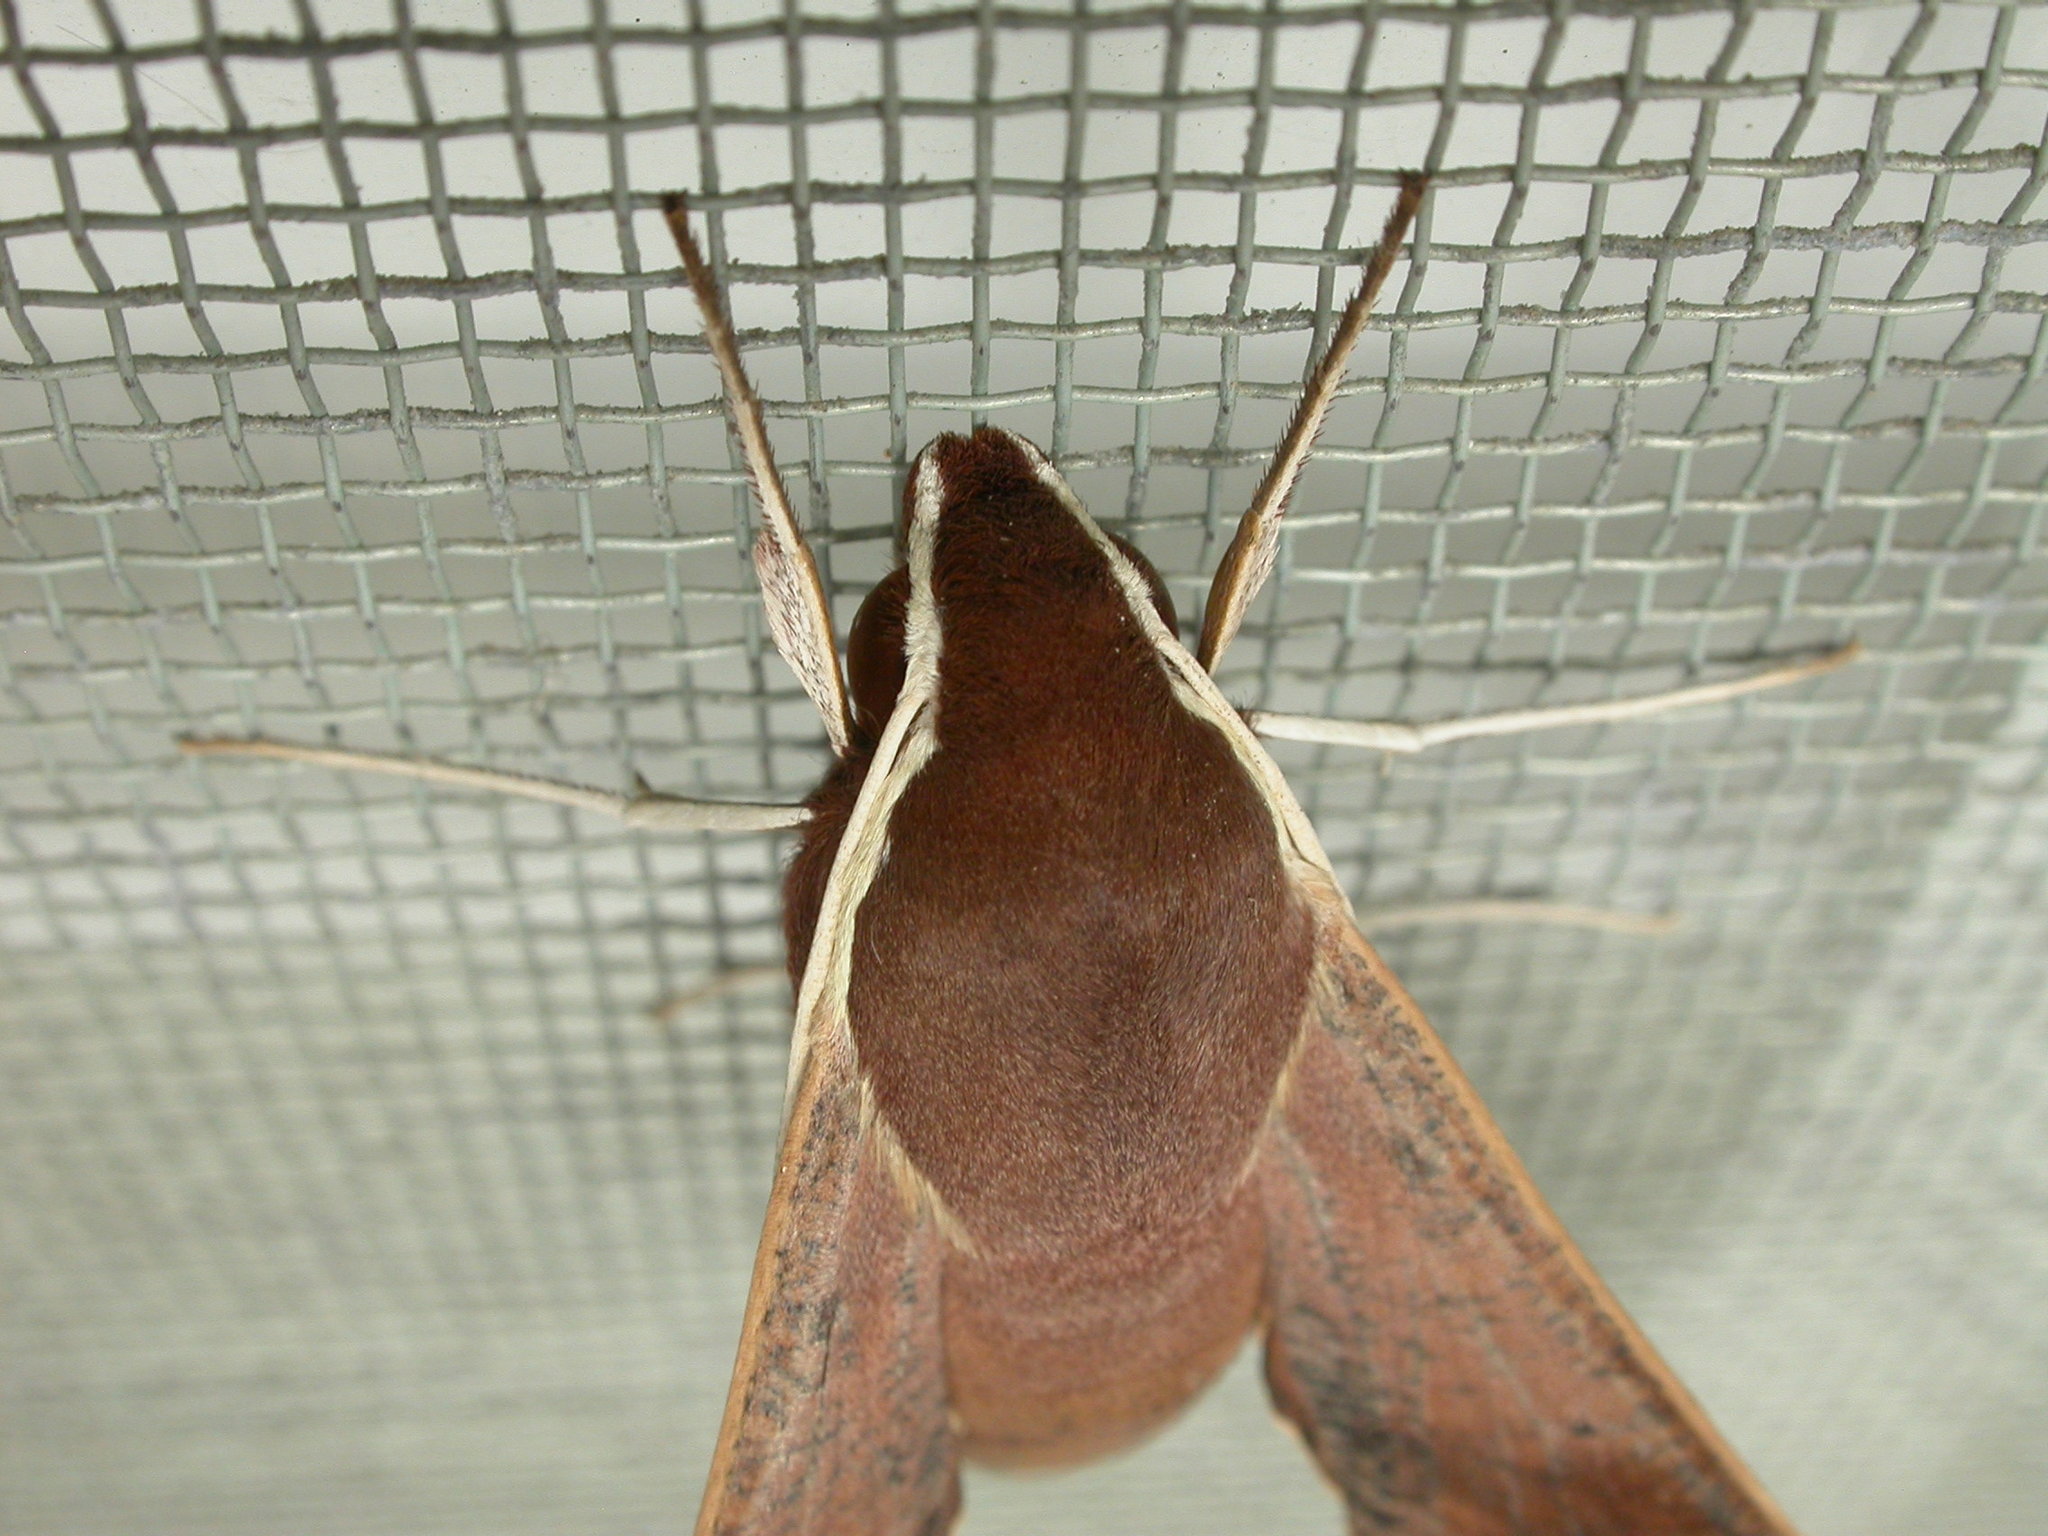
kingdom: Animalia
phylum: Arthropoda
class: Insecta
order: Lepidoptera
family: Sphingidae
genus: Hippotion
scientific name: Hippotion scrofa
